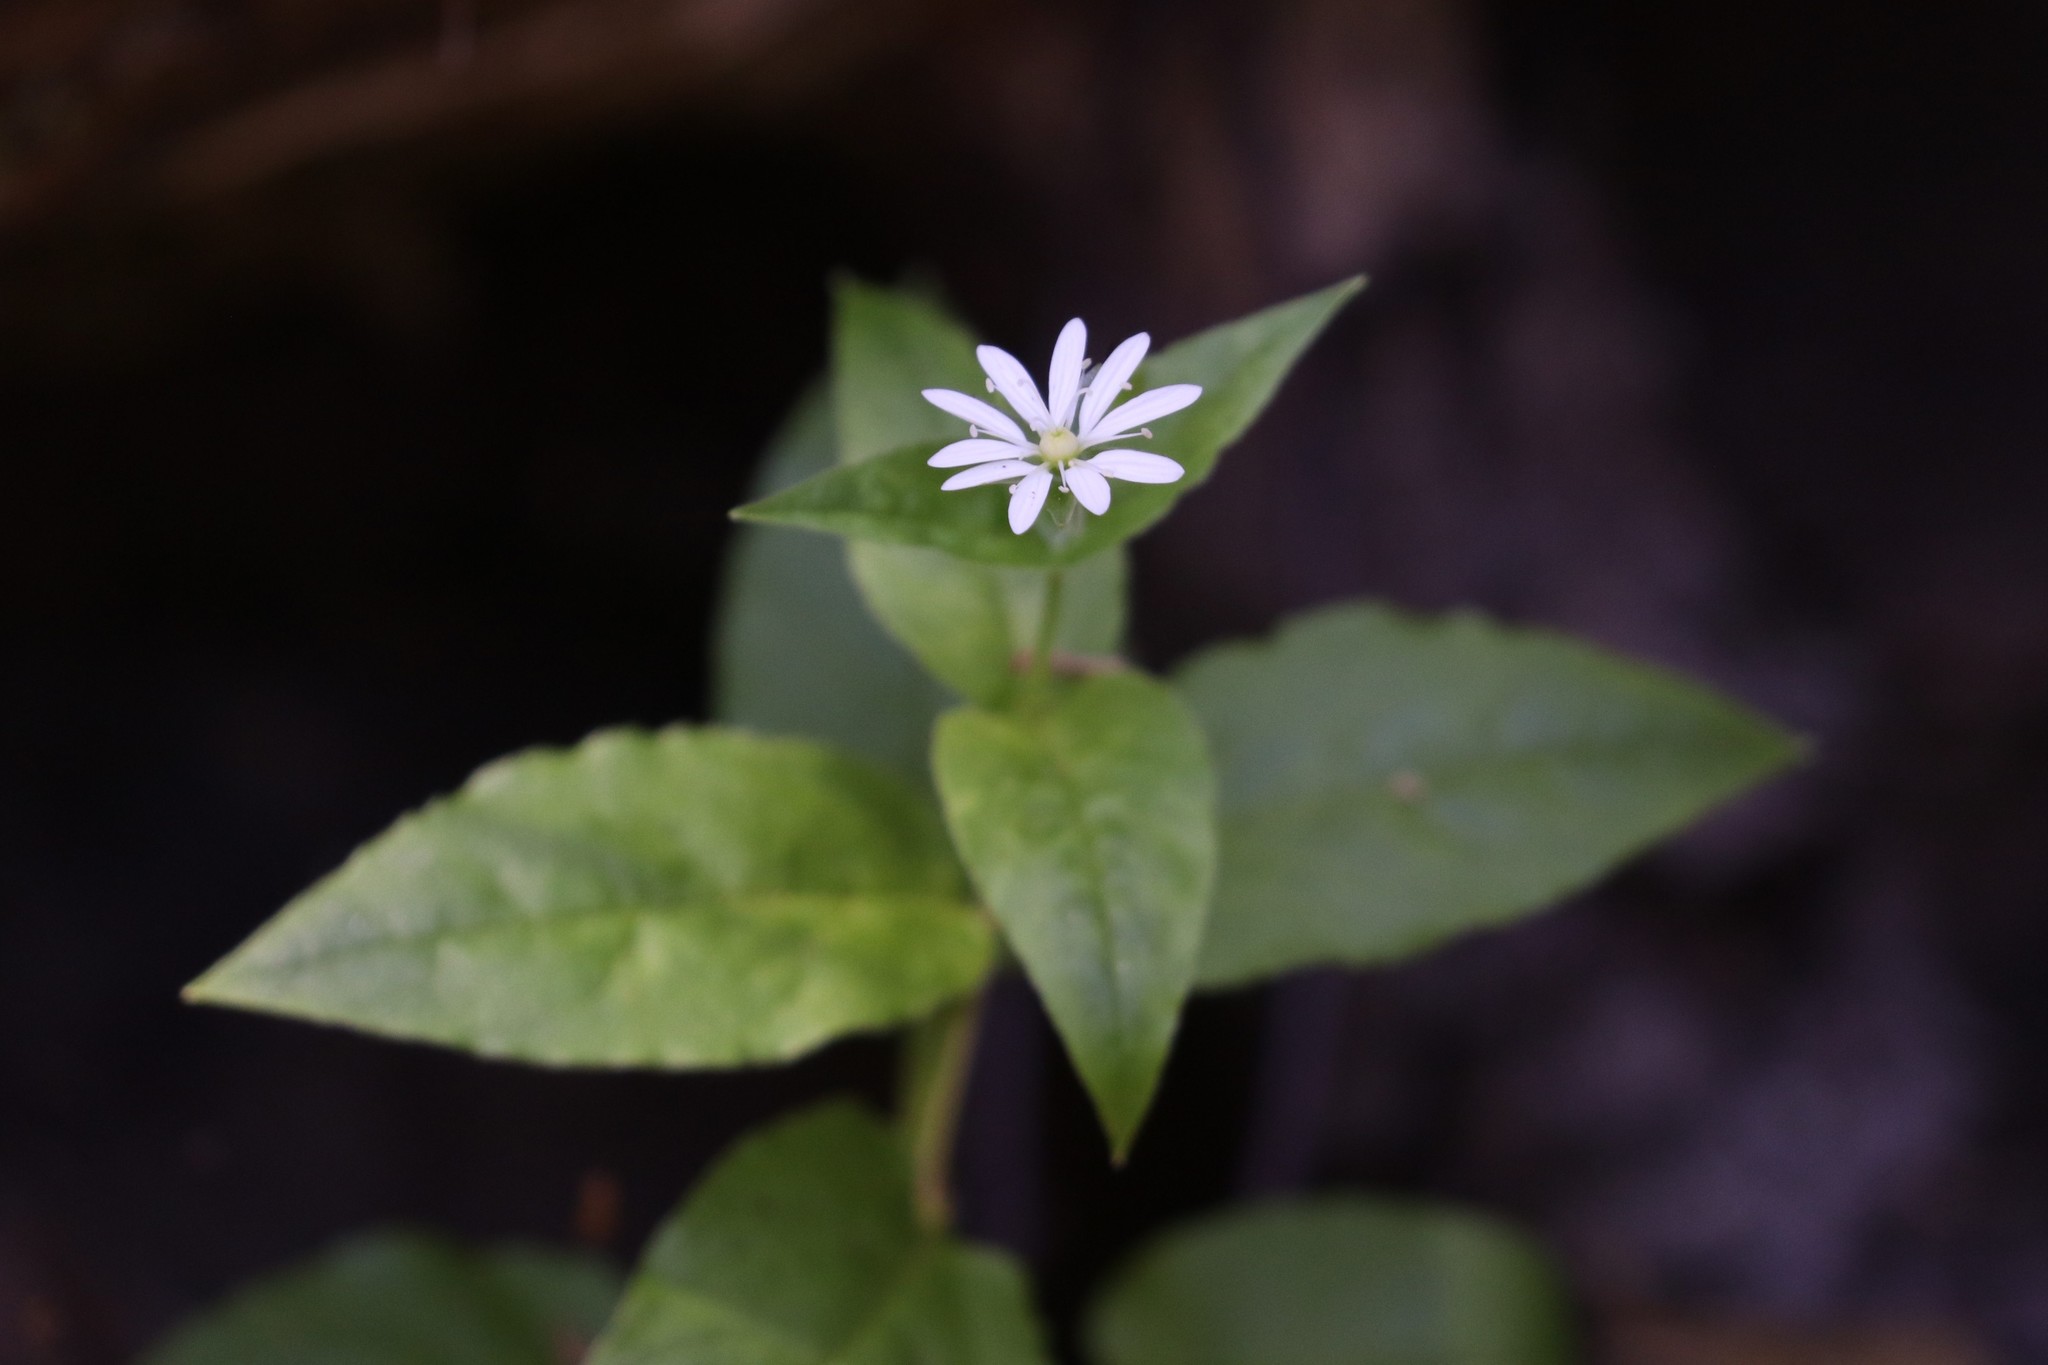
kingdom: Plantae
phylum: Tracheophyta
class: Magnoliopsida
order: Caryophyllales
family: Caryophyllaceae
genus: Stellaria
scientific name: Stellaria bungeana
